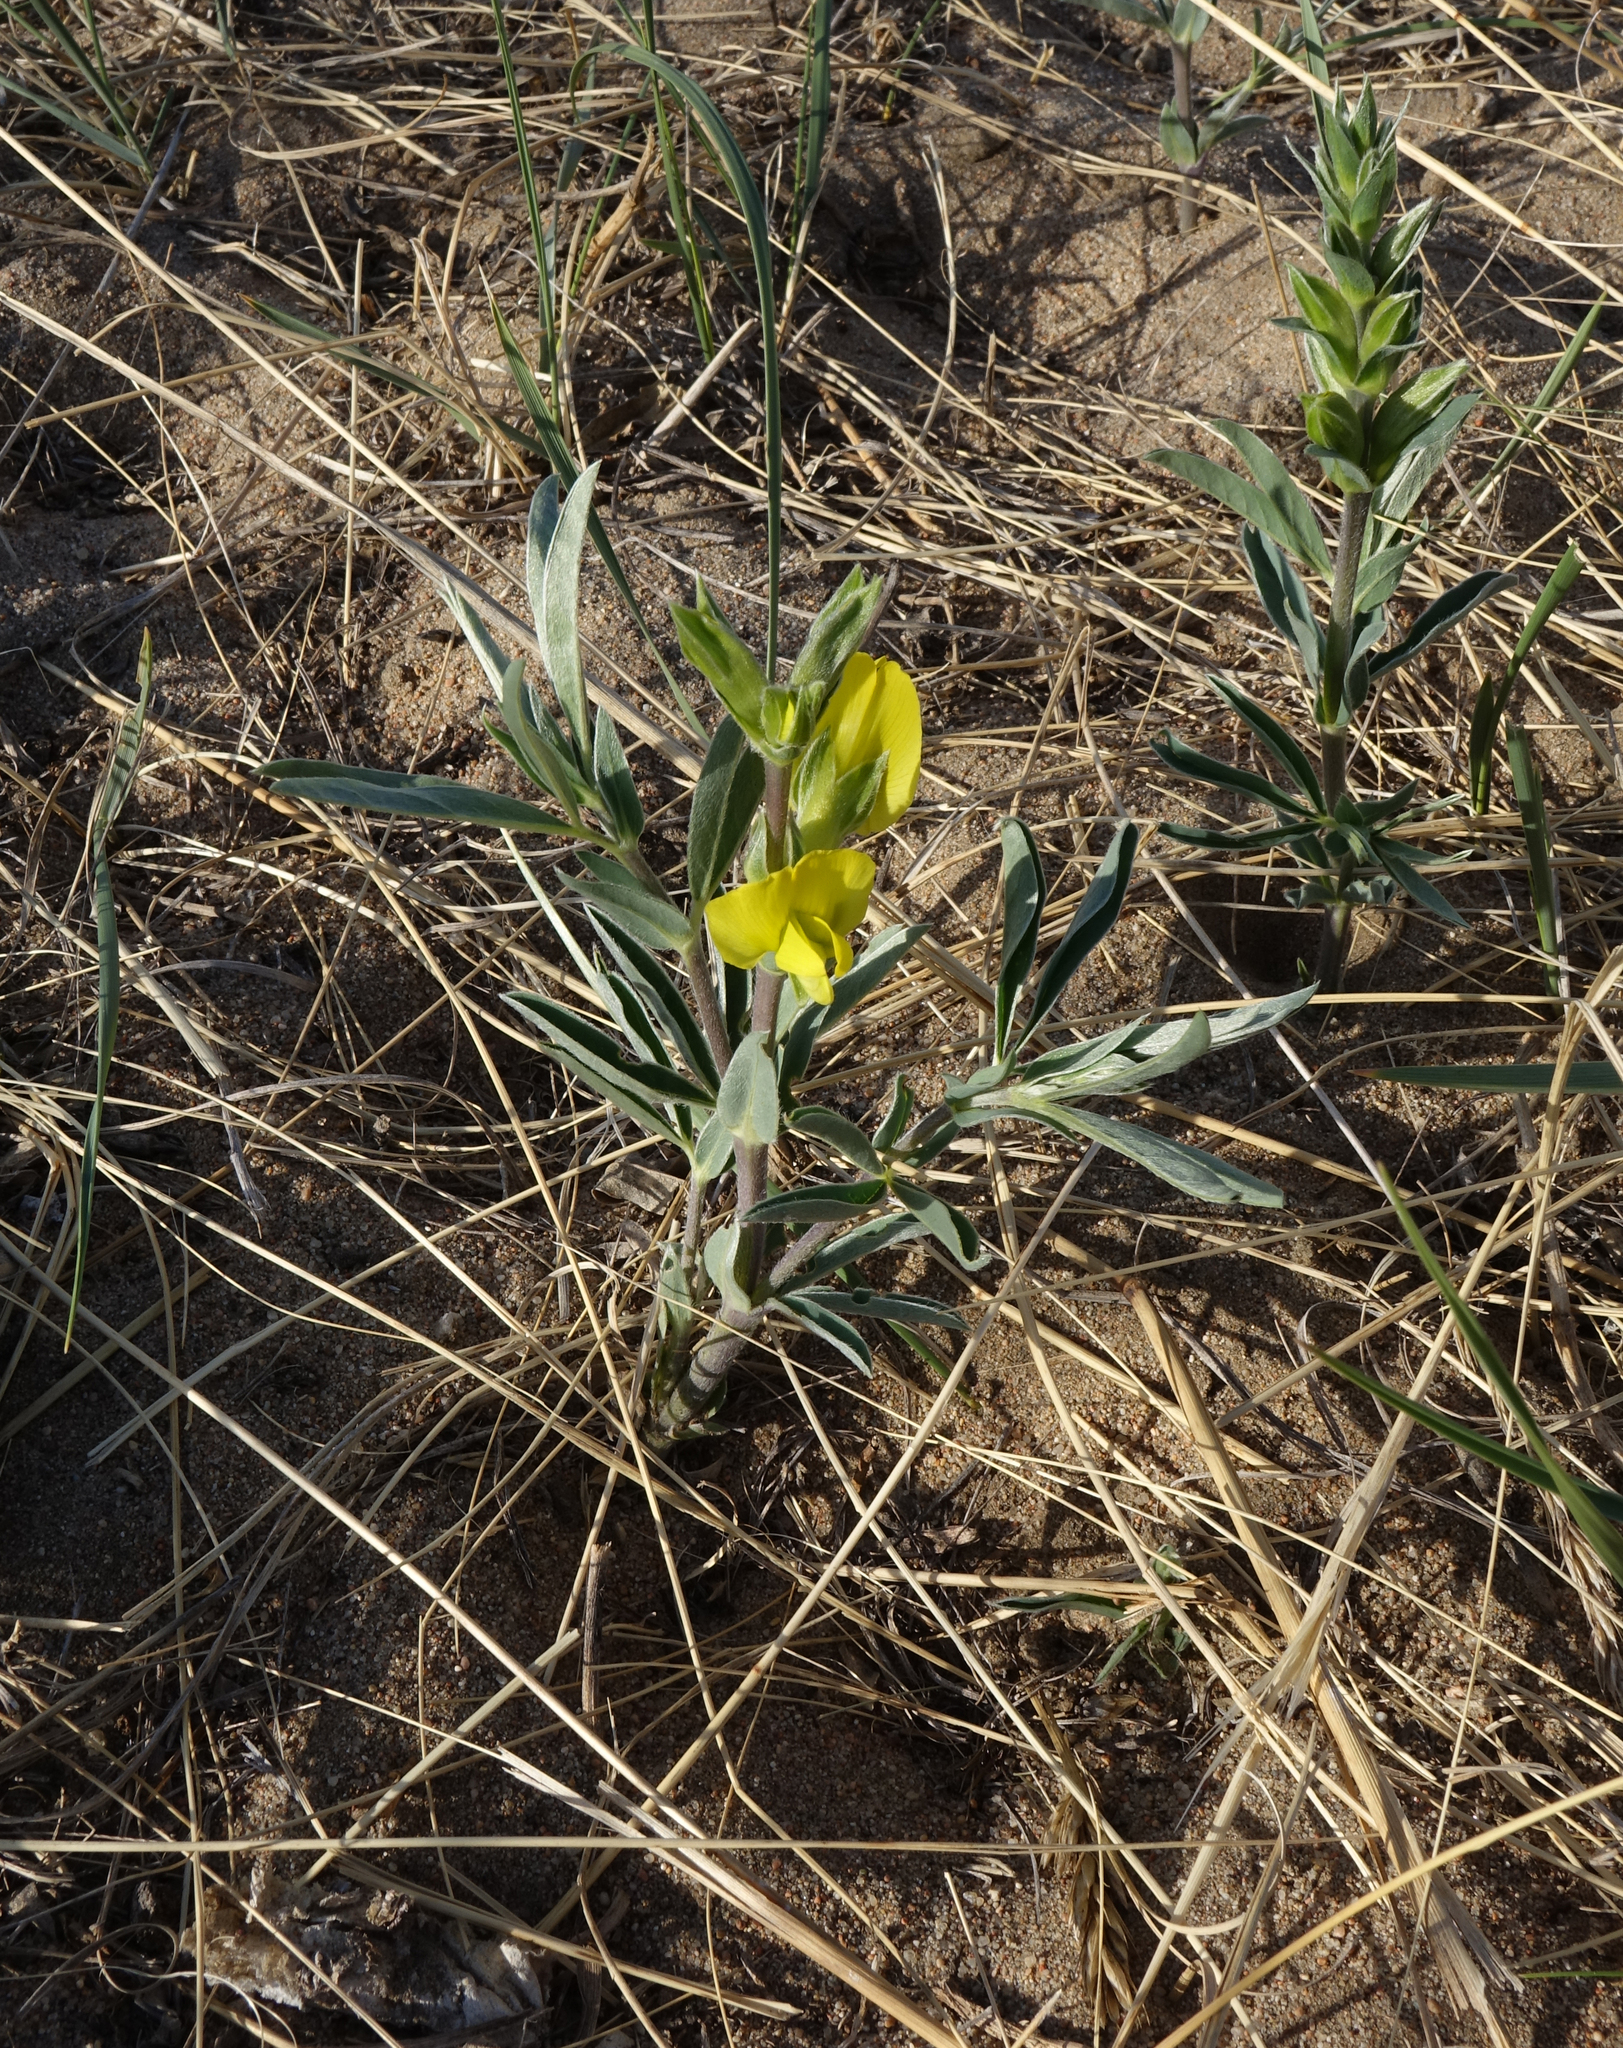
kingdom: Plantae
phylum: Tracheophyta
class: Magnoliopsida
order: Fabales
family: Fabaceae
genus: Thermopsis
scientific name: Thermopsis mongolica
